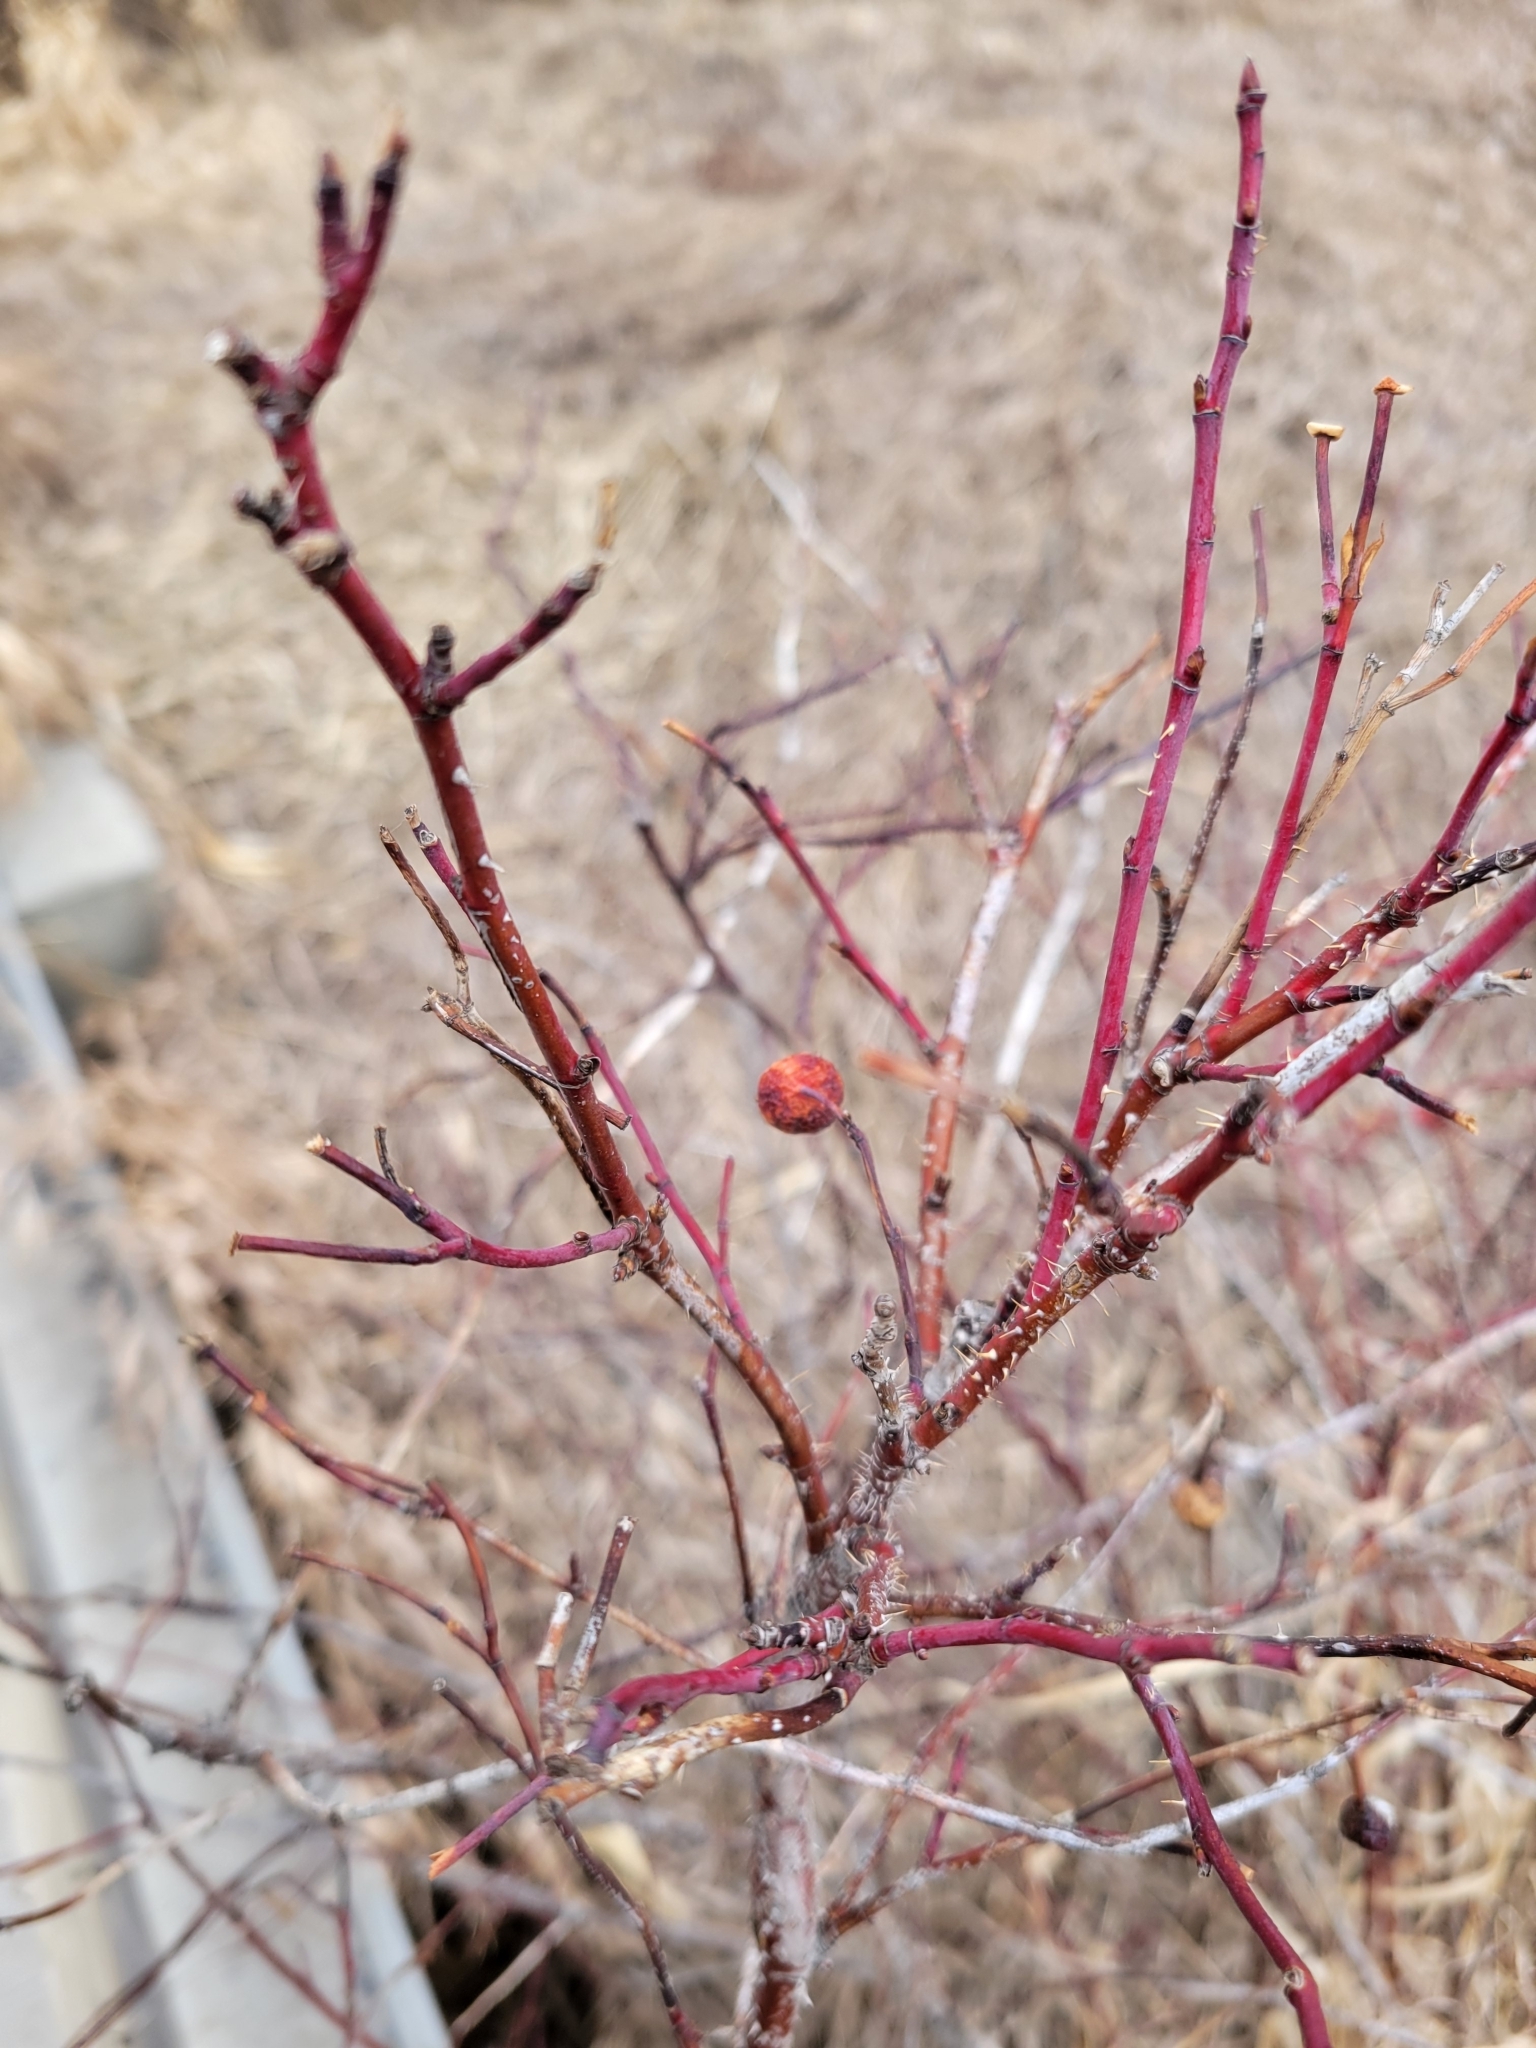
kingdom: Plantae
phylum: Tracheophyta
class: Magnoliopsida
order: Rosales
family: Rosaceae
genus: Rosa
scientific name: Rosa woodsii
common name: Woods's rose
